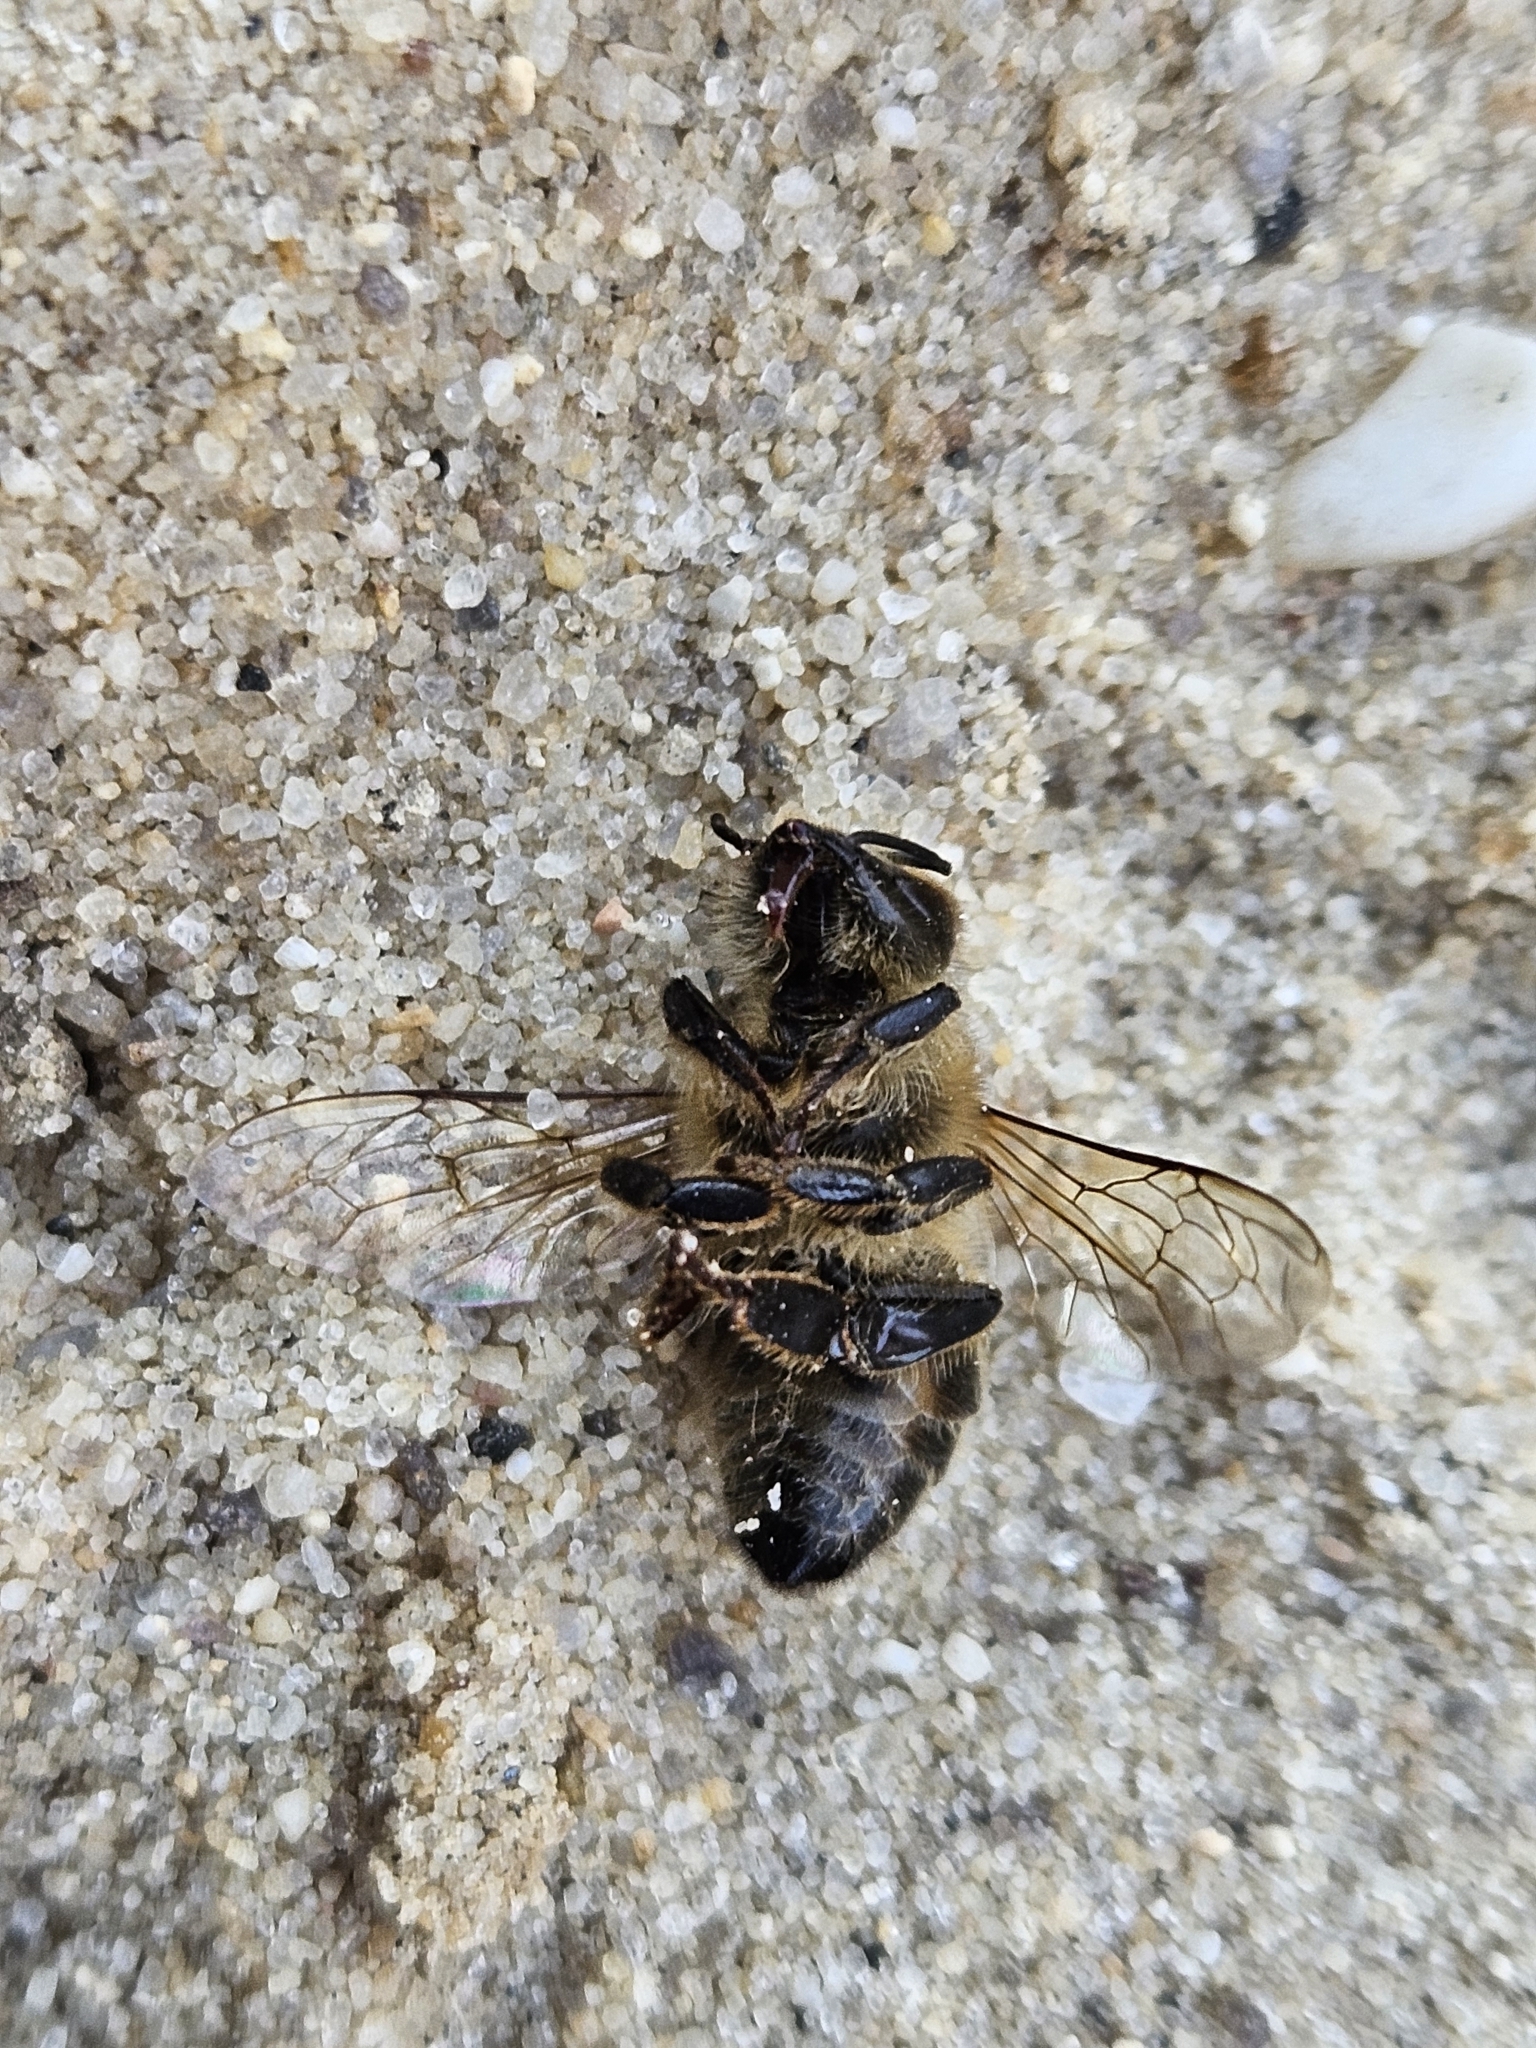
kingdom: Animalia
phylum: Arthropoda
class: Insecta
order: Hymenoptera
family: Apidae
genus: Apis
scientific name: Apis mellifera
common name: Honey bee
